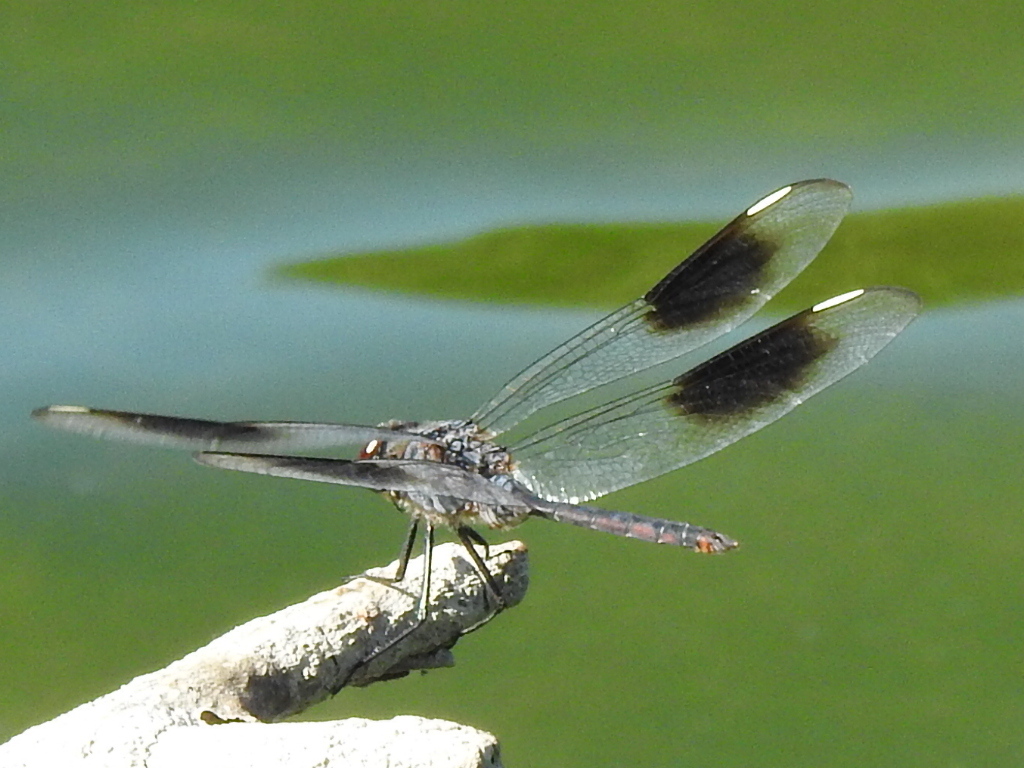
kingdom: Animalia
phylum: Arthropoda
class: Insecta
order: Odonata
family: Libellulidae
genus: Brachymesia
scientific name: Brachymesia gravida
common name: Four-spotted pennant
